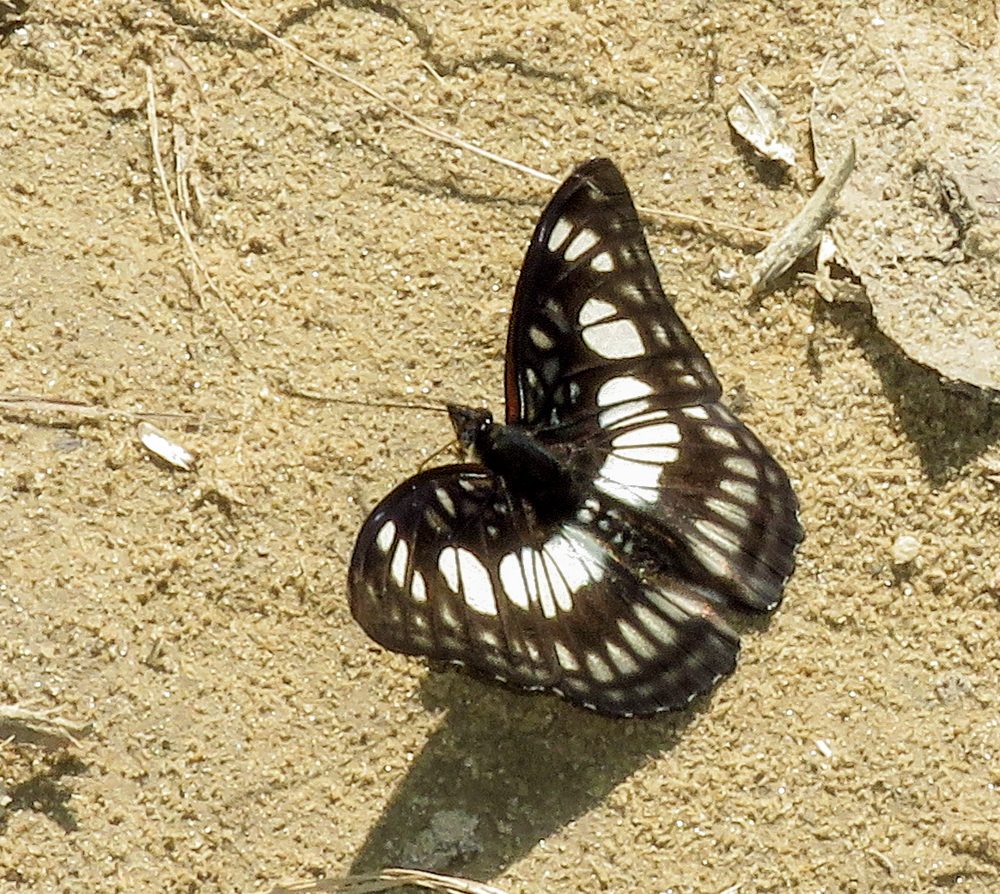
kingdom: Animalia
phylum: Arthropoda
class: Insecta
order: Lepidoptera
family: Nymphalidae
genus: Parathyma
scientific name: Parathyma ranga
